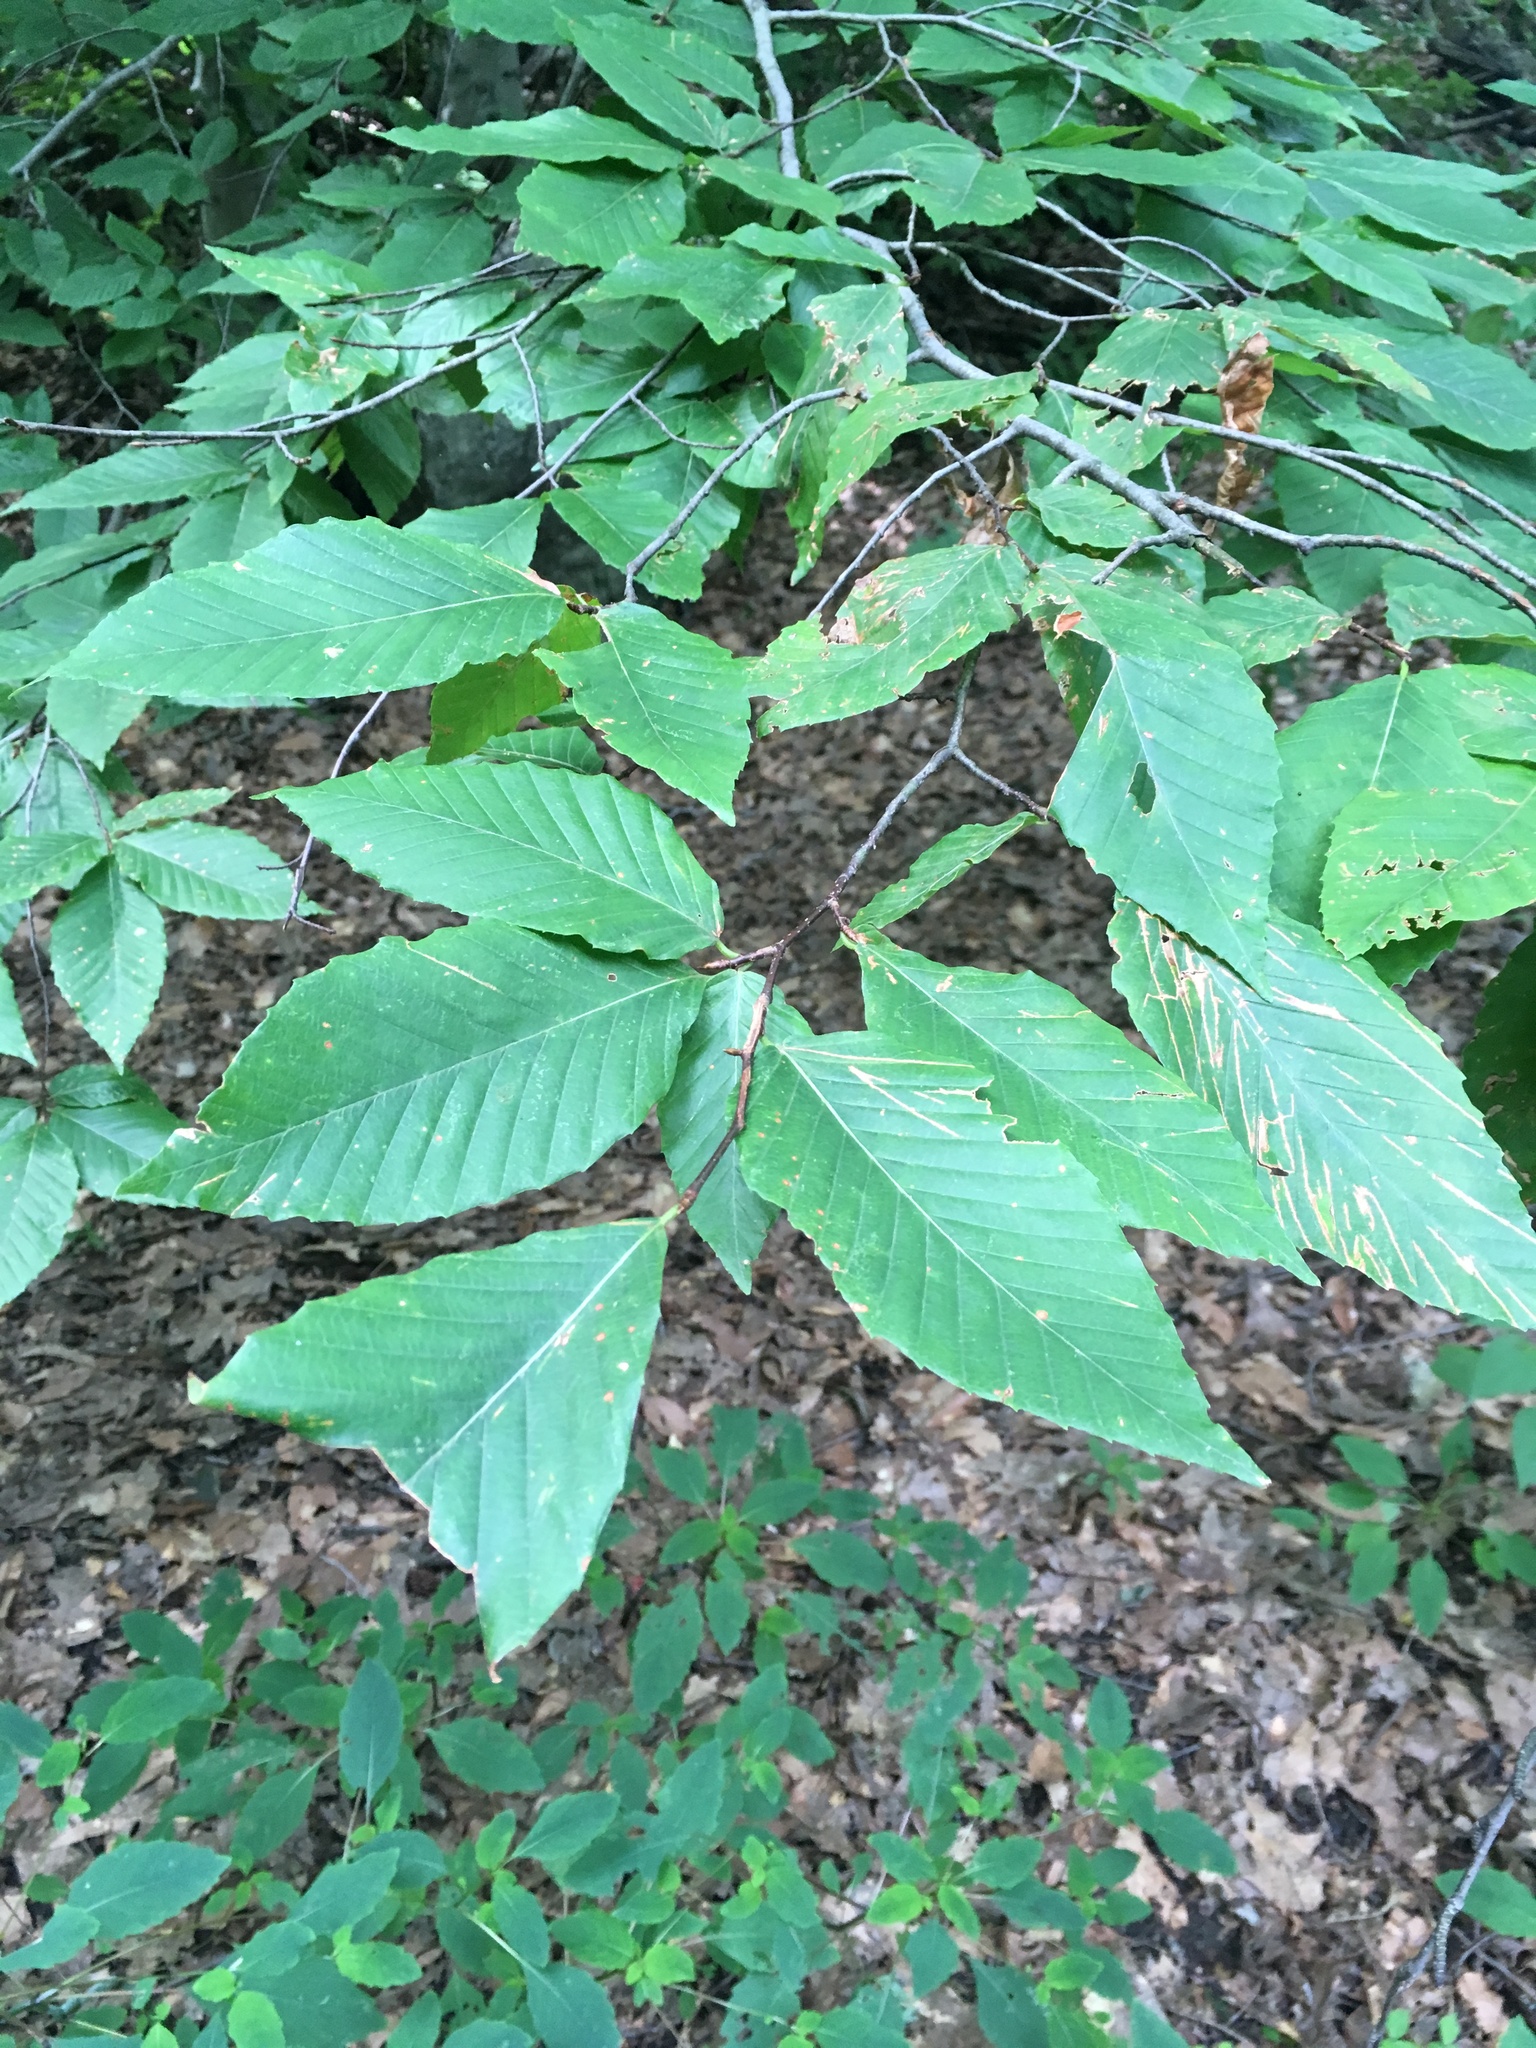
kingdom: Plantae
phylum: Tracheophyta
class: Magnoliopsida
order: Fagales
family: Fagaceae
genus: Fagus
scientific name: Fagus grandifolia
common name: American beech
